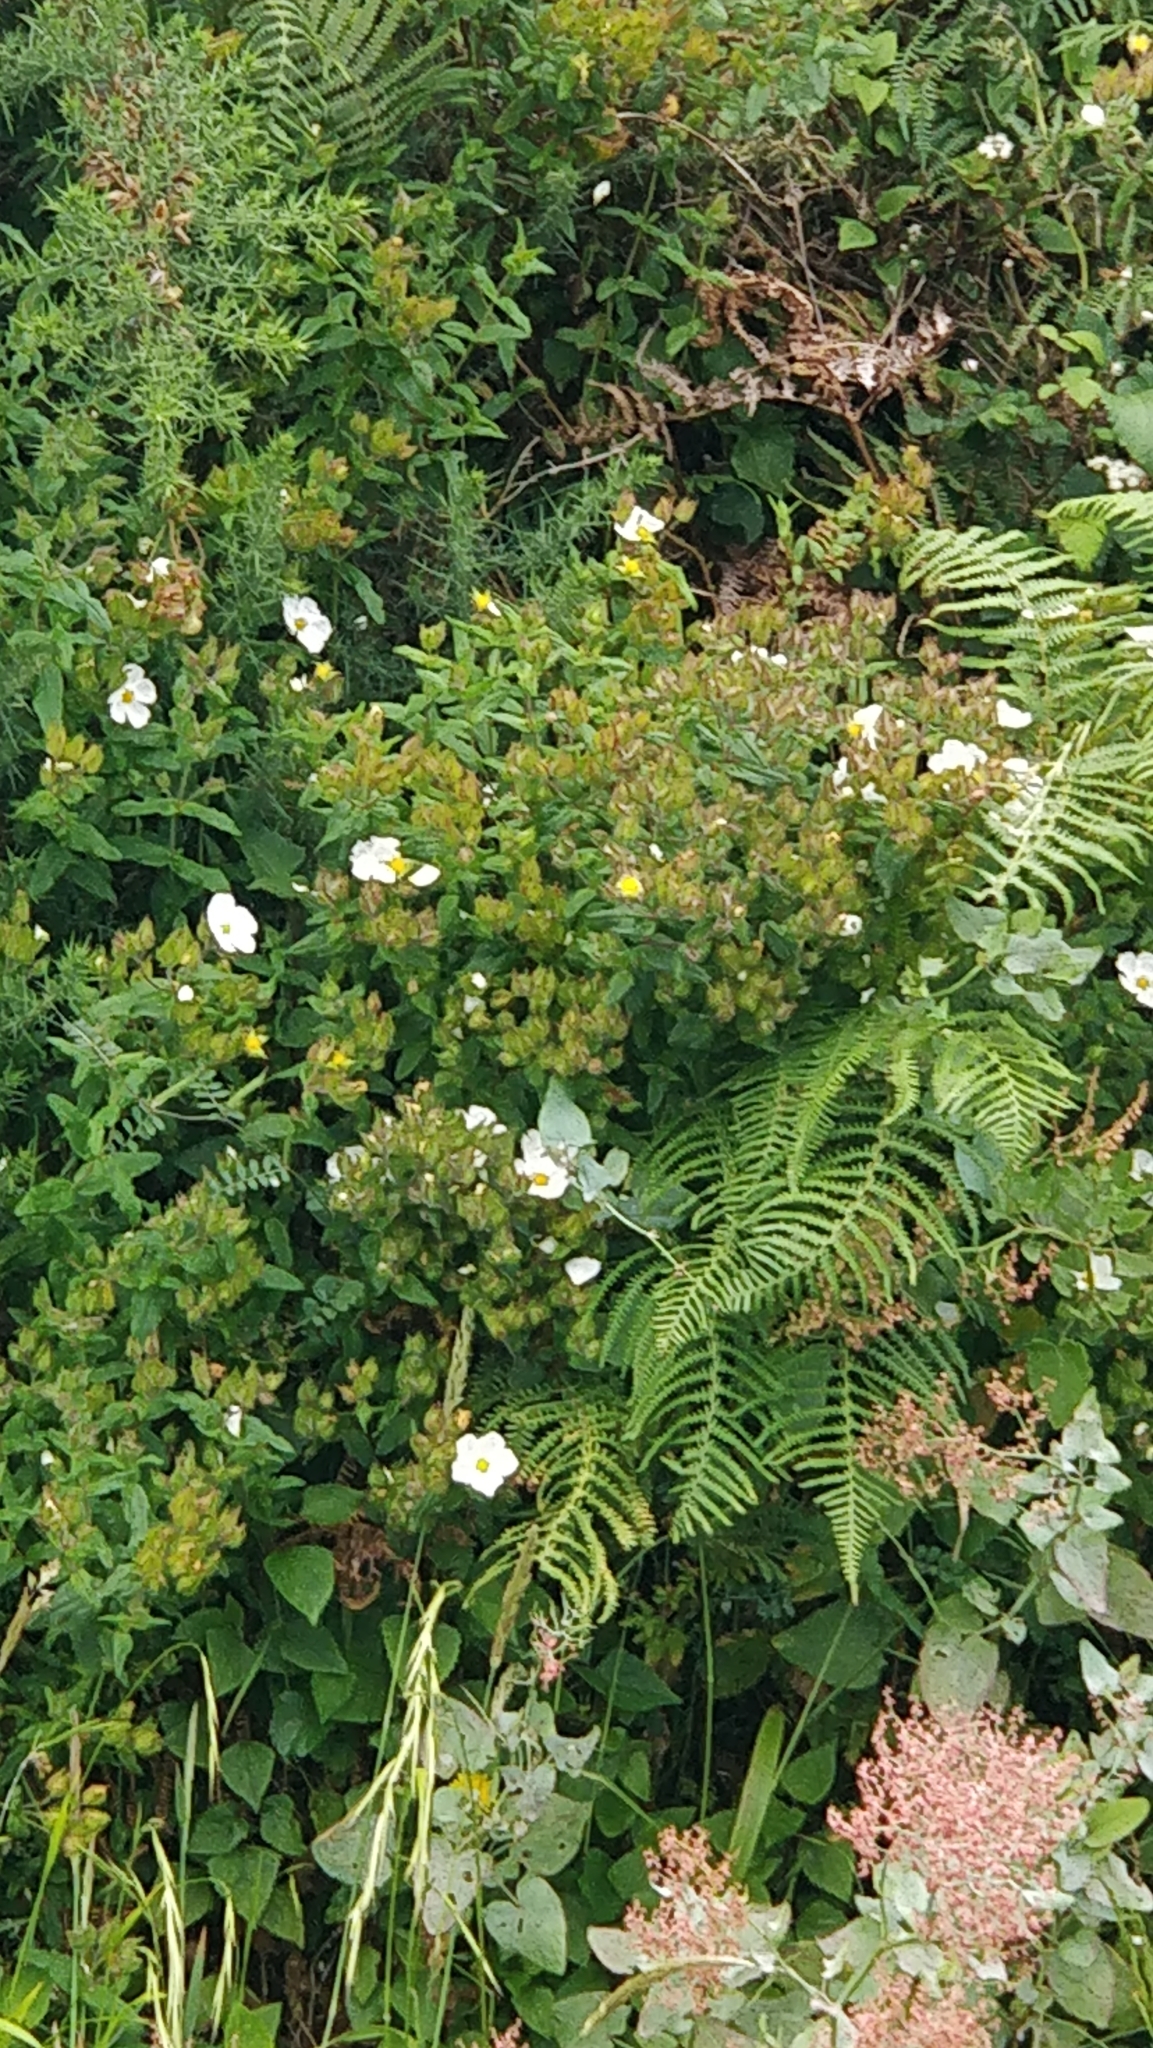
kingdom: Plantae
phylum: Tracheophyta
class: Magnoliopsida
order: Malvales
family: Cistaceae
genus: Cistus
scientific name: Cistus inflatus
